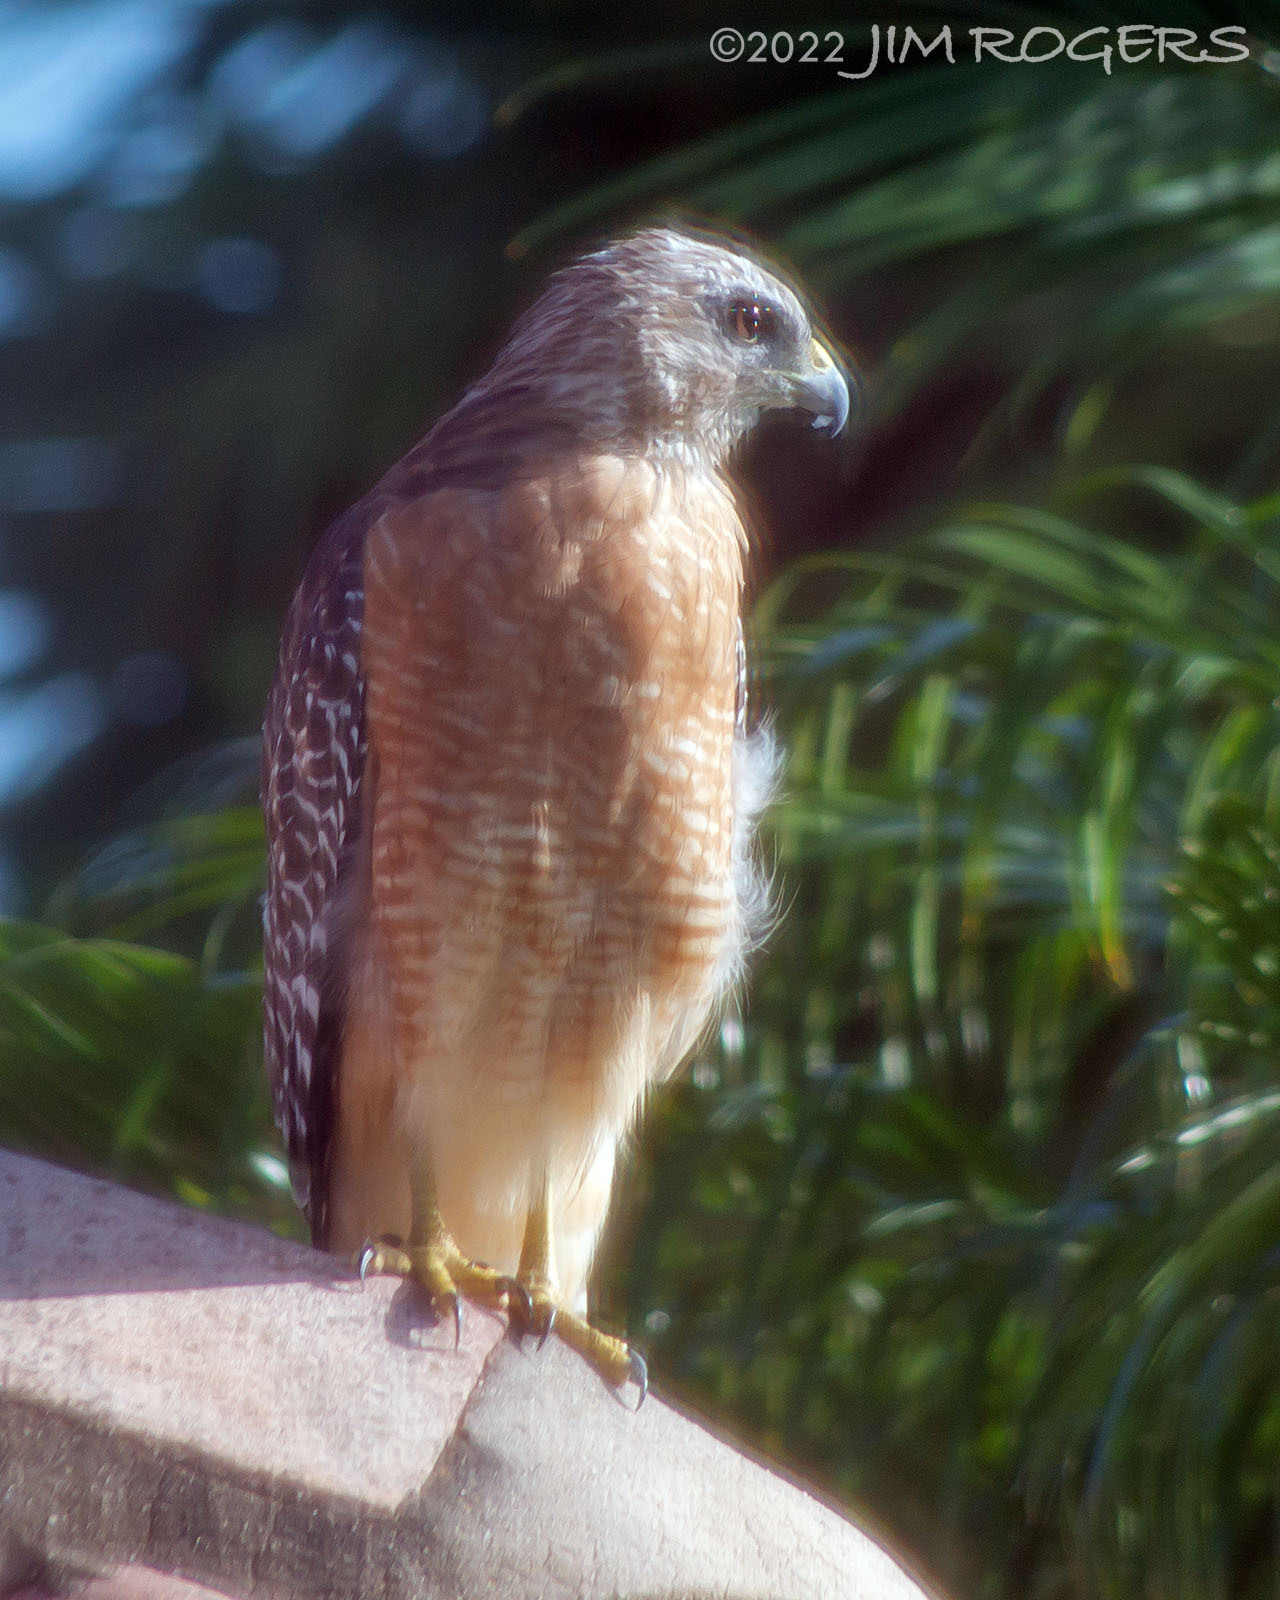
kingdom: Animalia
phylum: Chordata
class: Aves
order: Accipitriformes
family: Accipitridae
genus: Buteo
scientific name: Buteo lineatus
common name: Red-shouldered hawk
